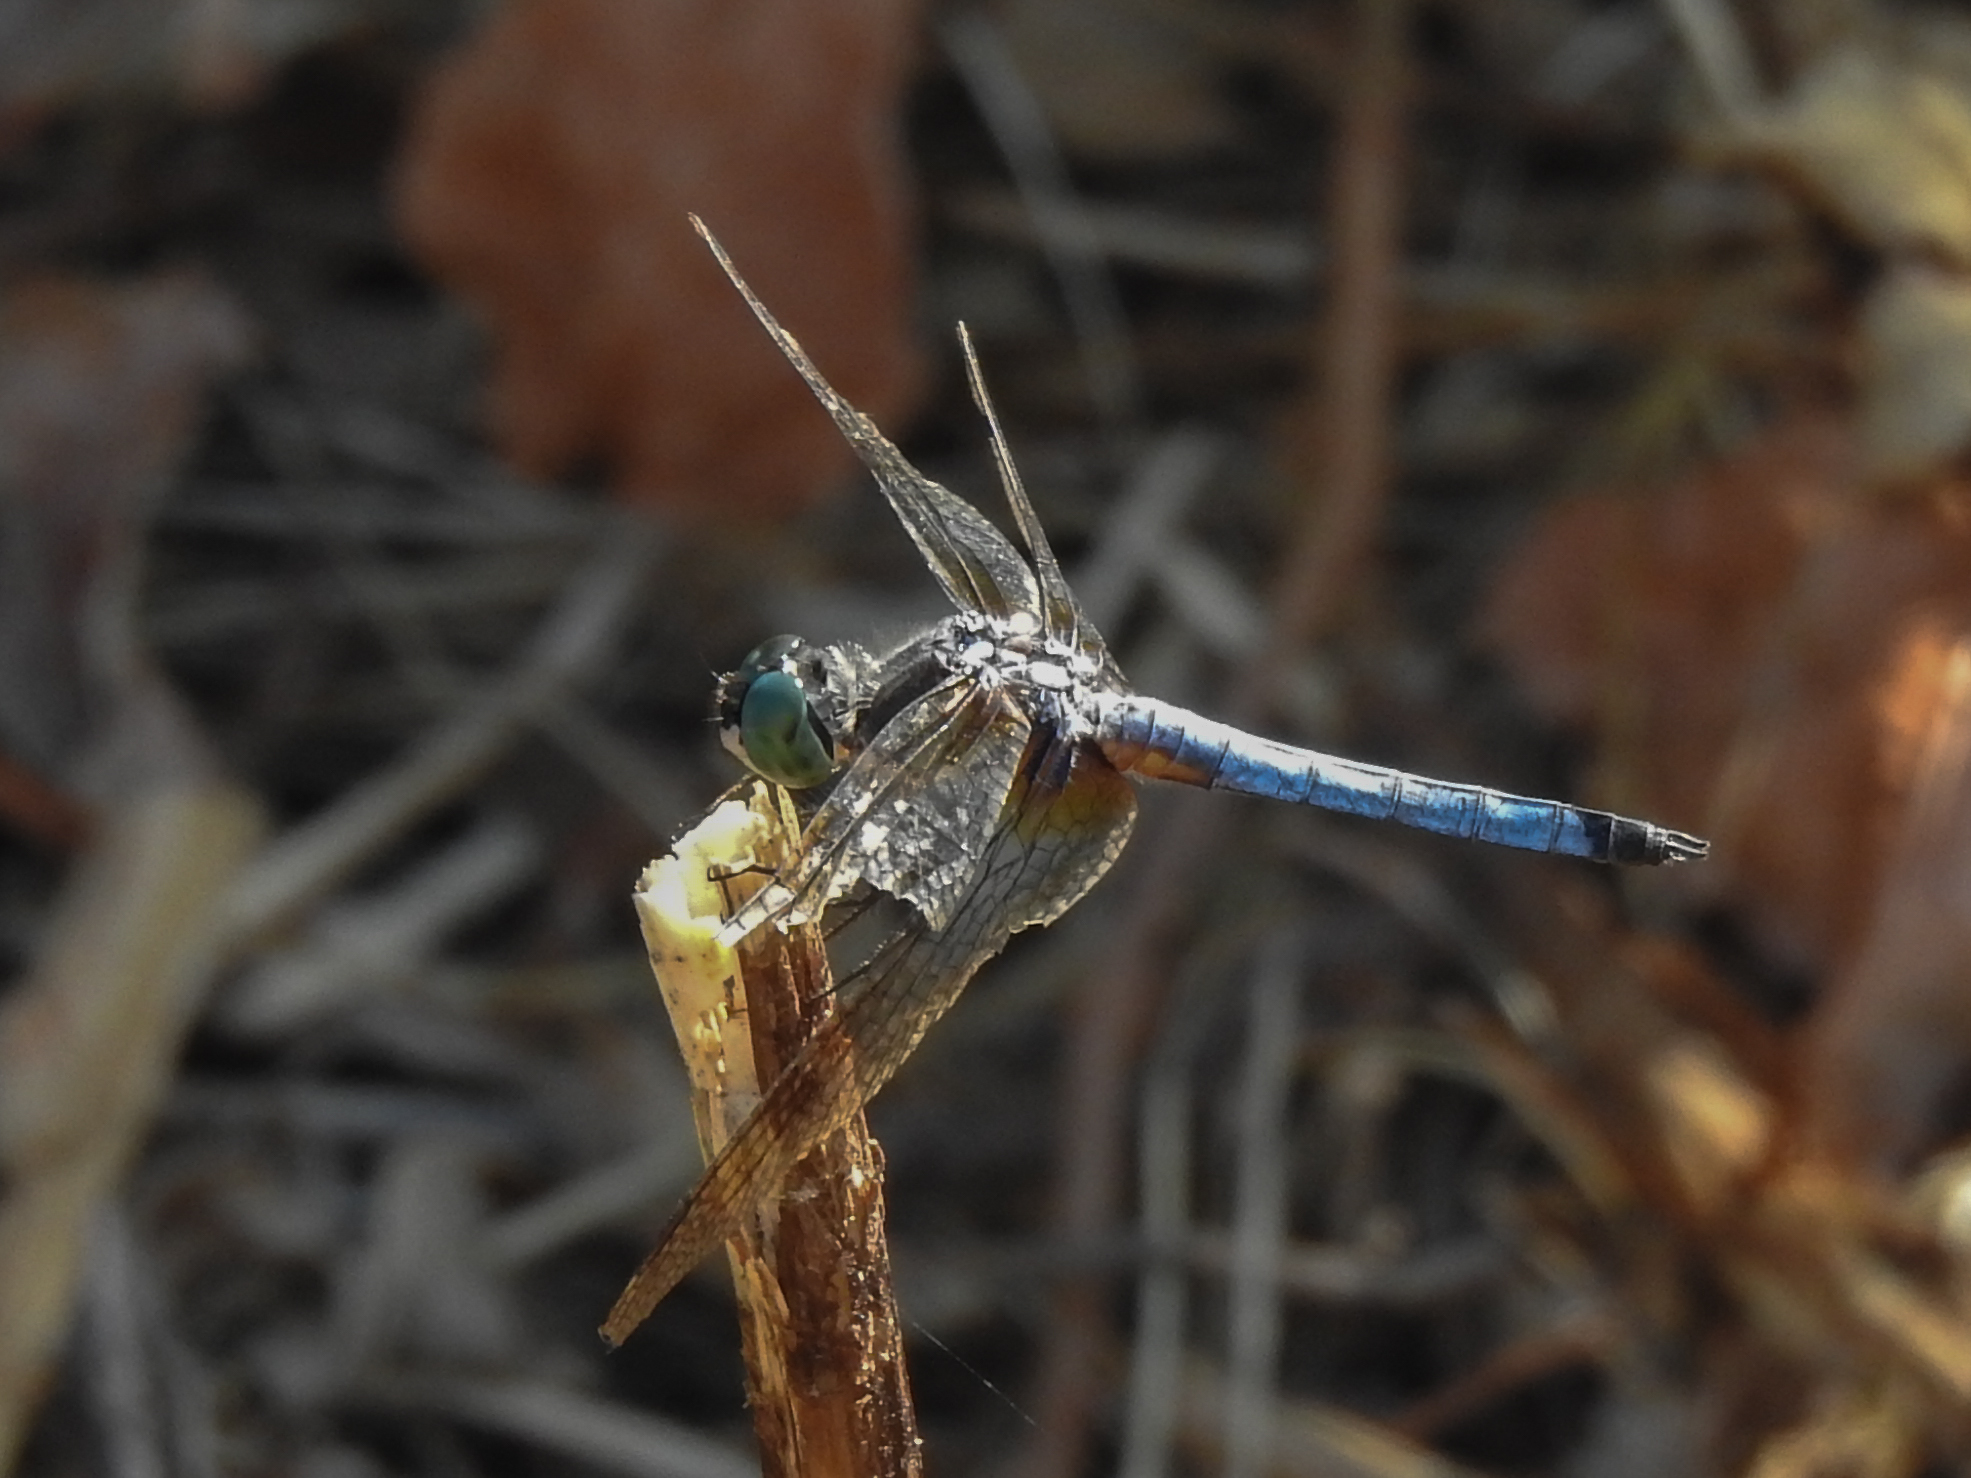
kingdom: Animalia
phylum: Arthropoda
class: Insecta
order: Odonata
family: Libellulidae
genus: Pachydiplax
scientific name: Pachydiplax longipennis
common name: Blue dasher
